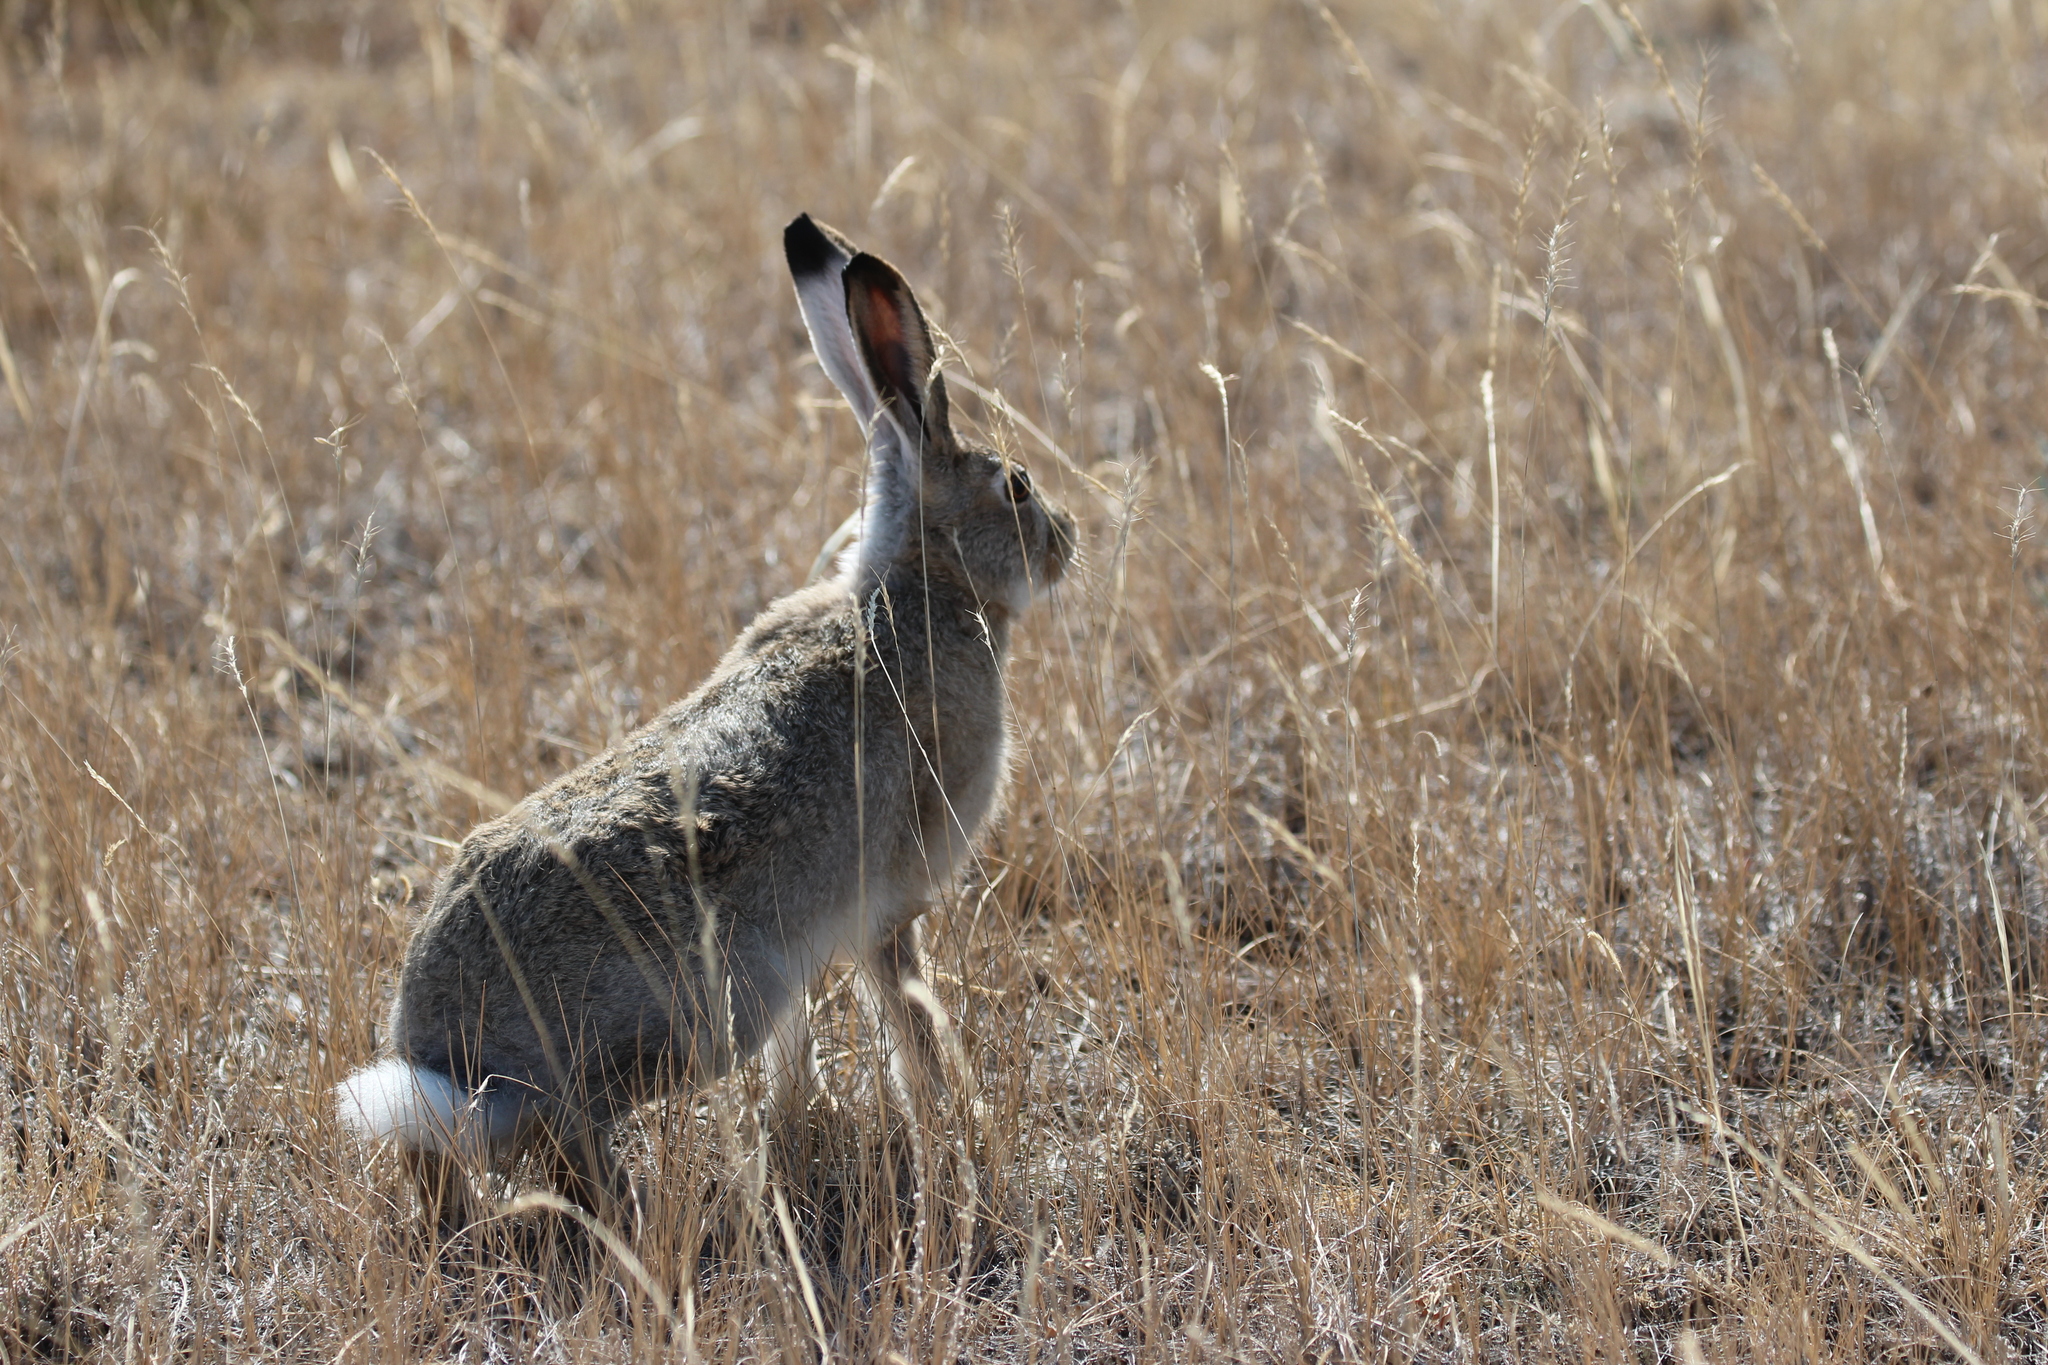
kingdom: Animalia
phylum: Chordata
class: Mammalia
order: Lagomorpha
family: Leporidae
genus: Lepus
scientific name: Lepus townsendii
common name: White-tailed jackrabbit
